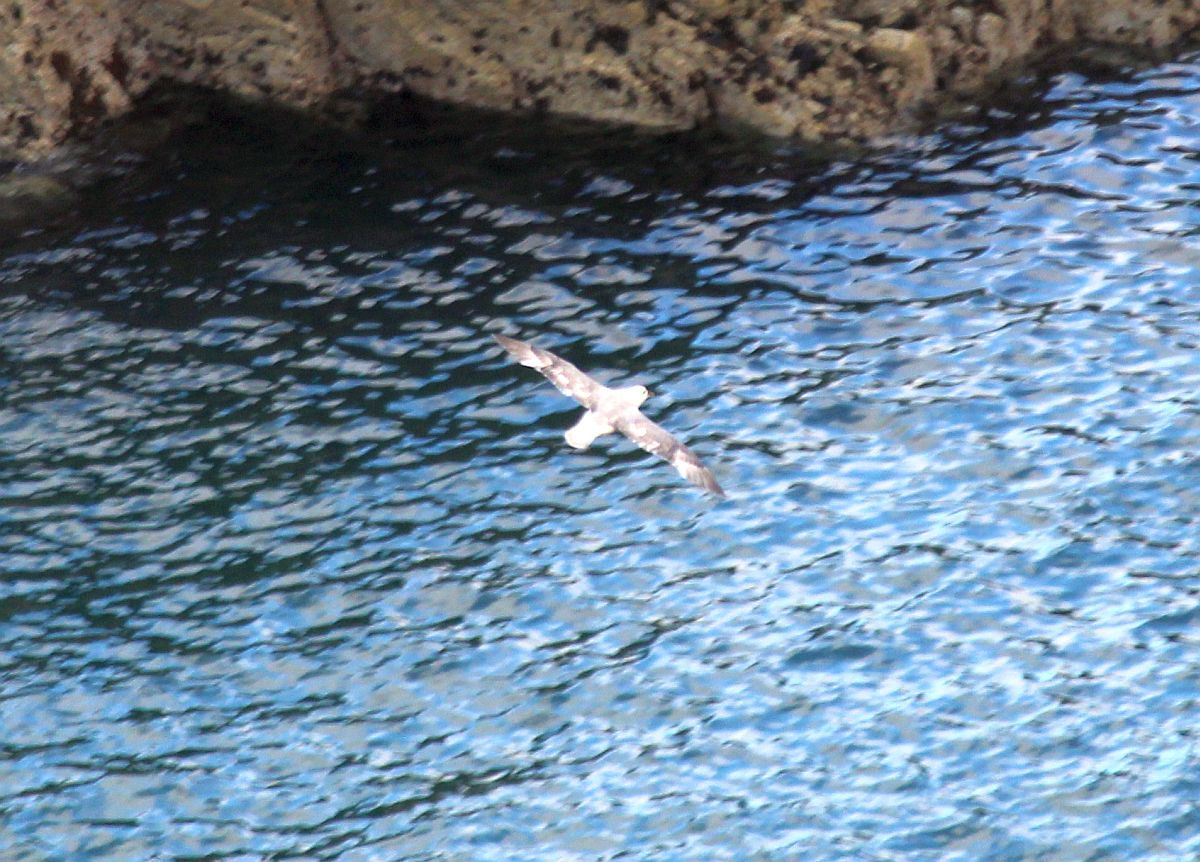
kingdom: Animalia
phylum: Chordata
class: Aves
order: Procellariiformes
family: Procellariidae
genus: Fulmarus
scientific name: Fulmarus glacialis
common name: Northern fulmar
